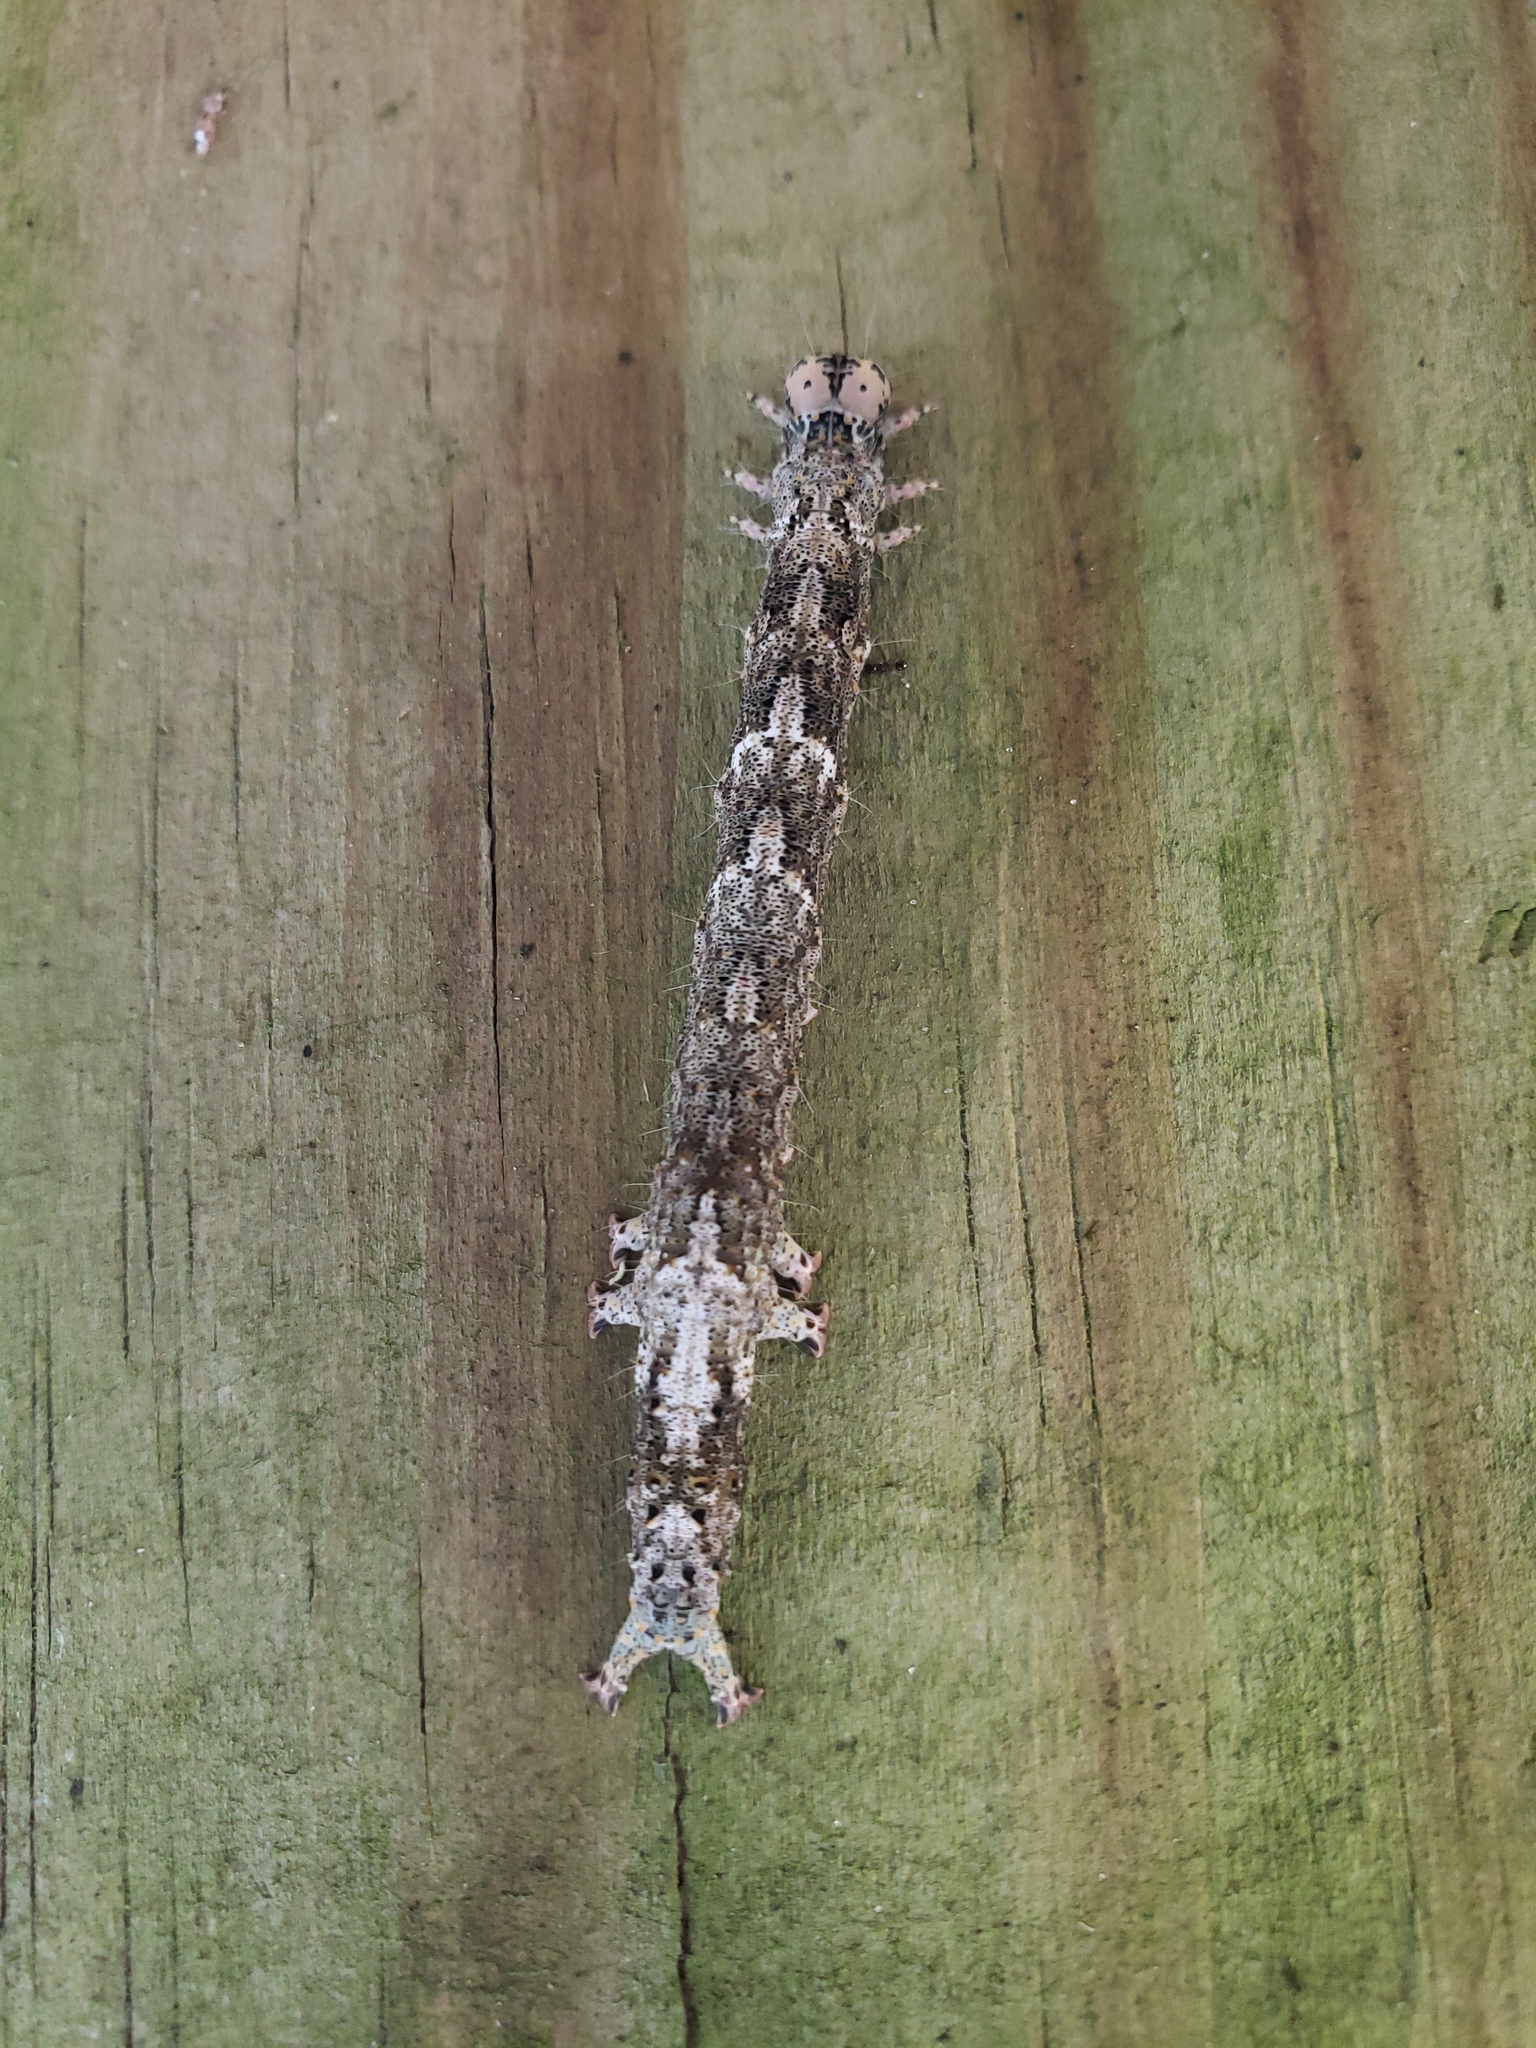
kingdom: Animalia
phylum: Arthropoda
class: Insecta
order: Lepidoptera
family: Erebidae
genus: Metria
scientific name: Metria amella
